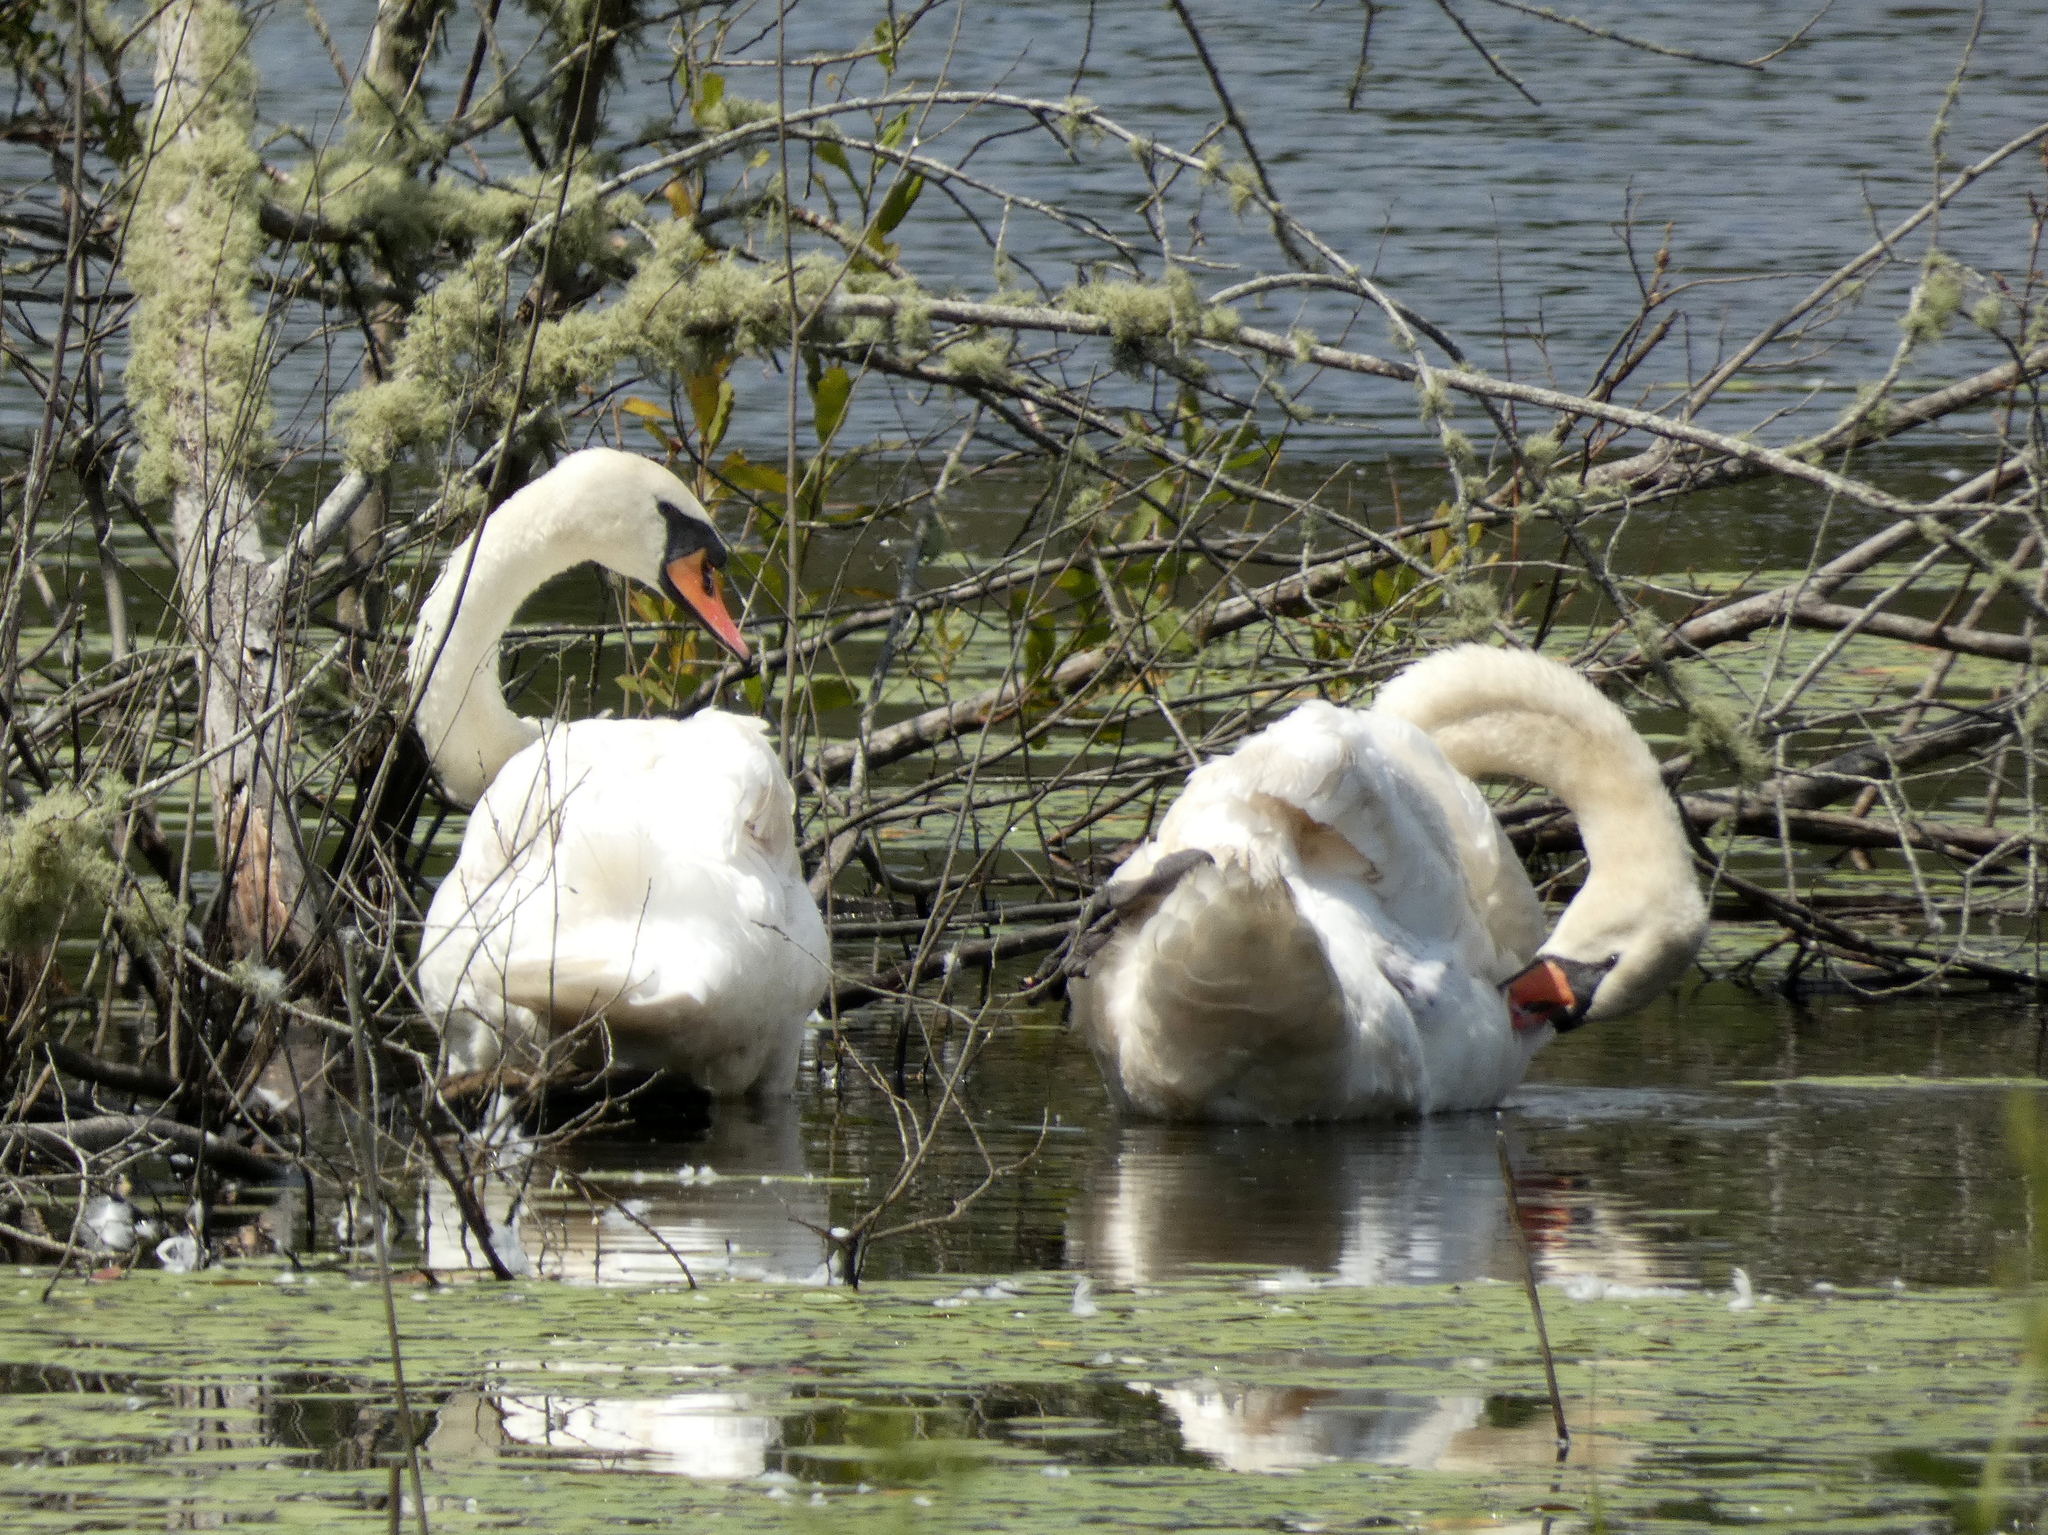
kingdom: Animalia
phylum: Chordata
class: Aves
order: Anseriformes
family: Anatidae
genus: Cygnus
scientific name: Cygnus olor
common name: Mute swan
